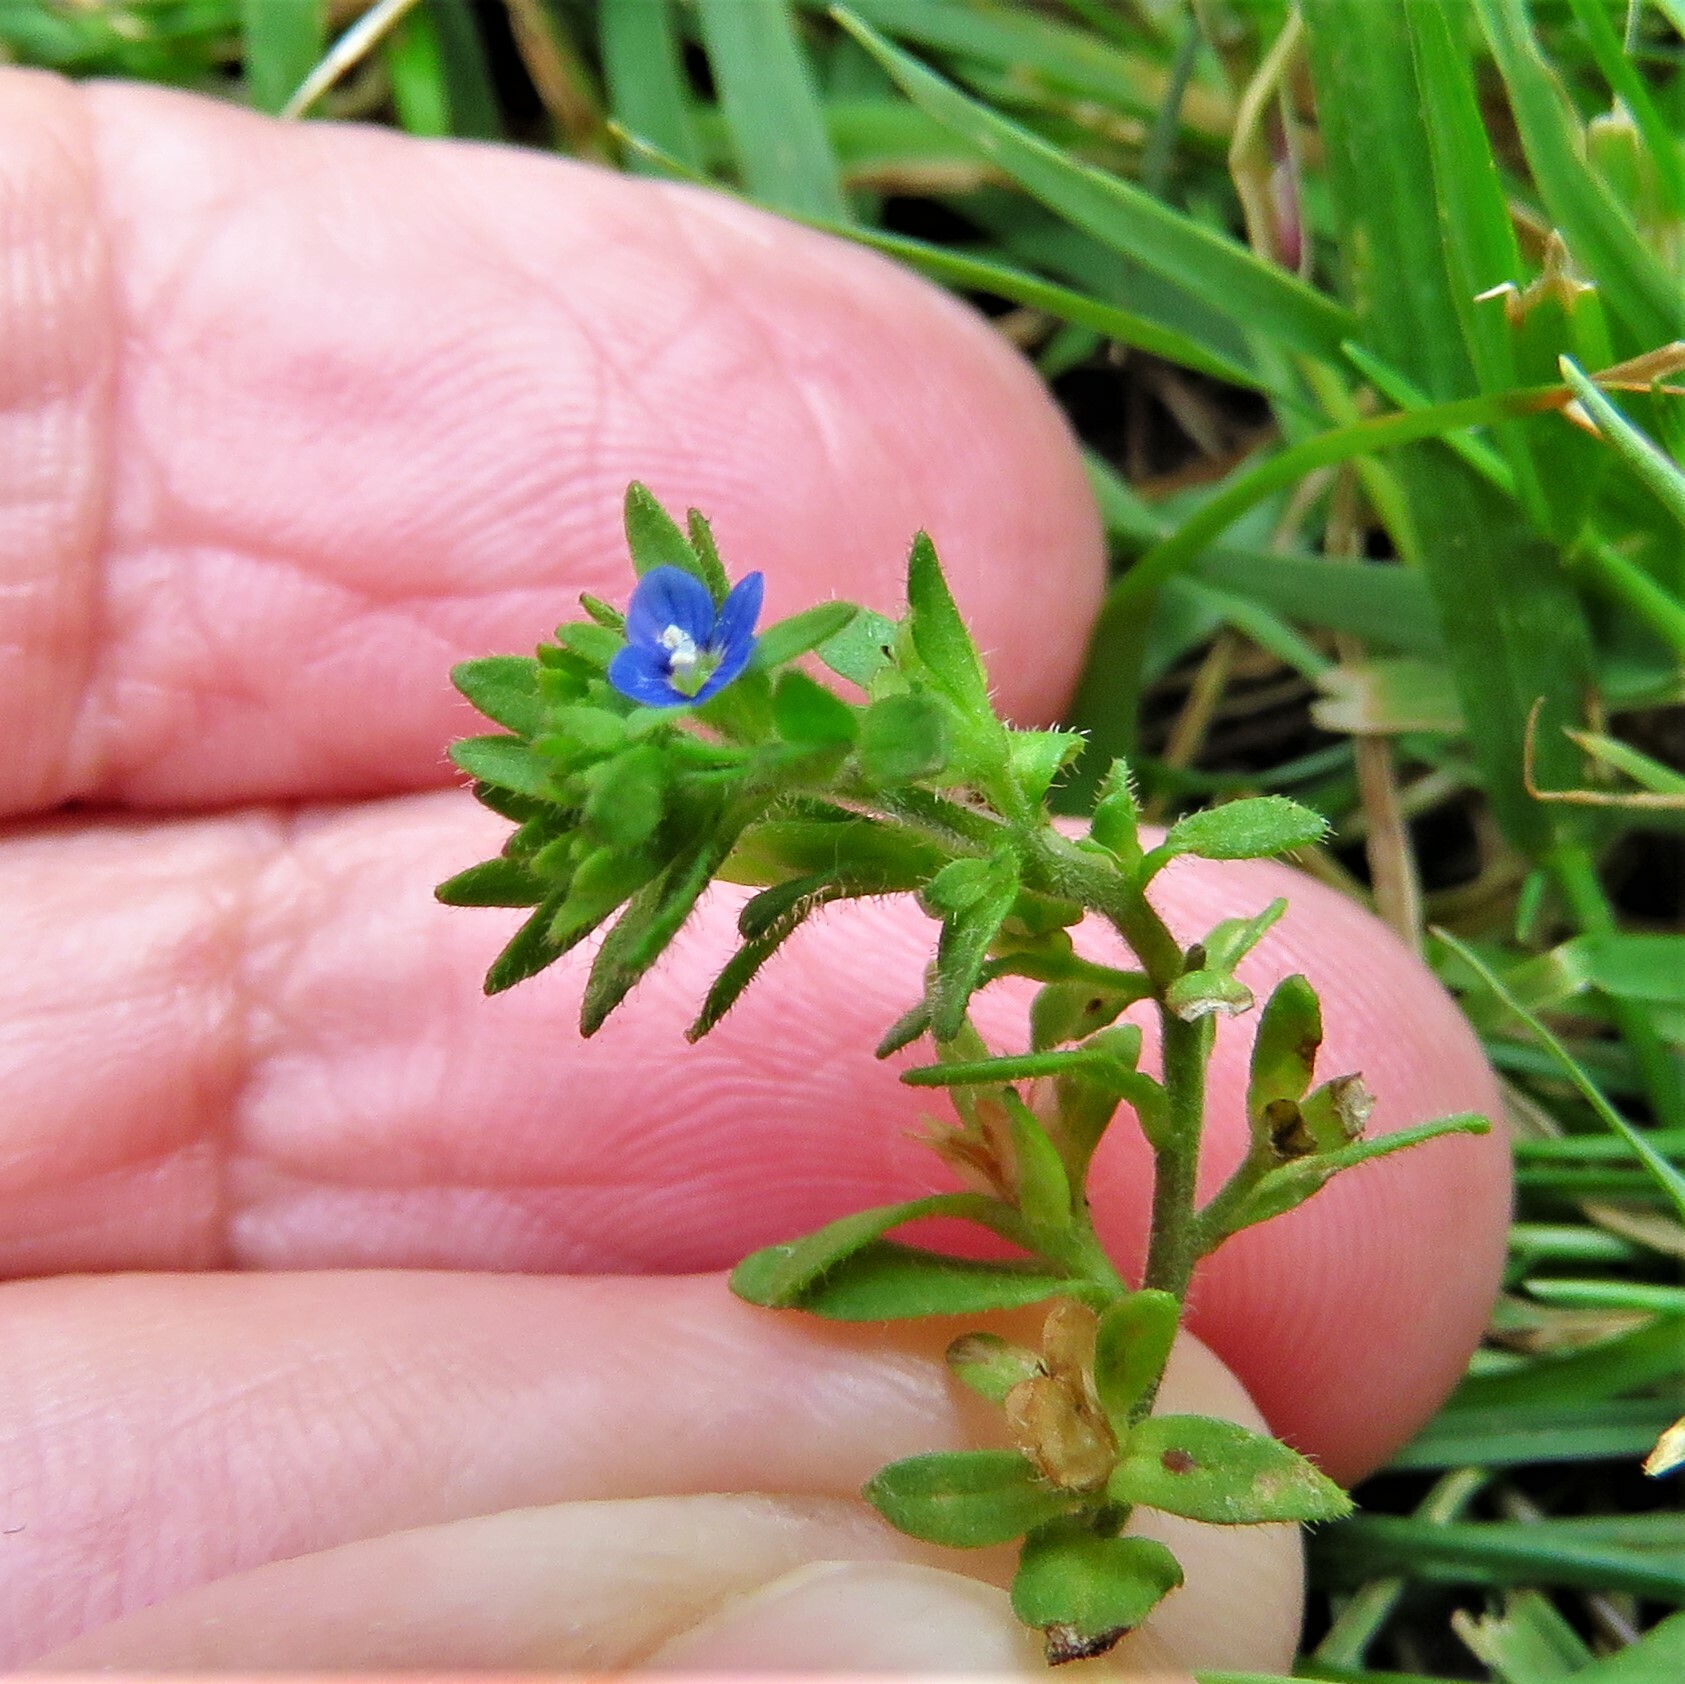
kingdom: Plantae
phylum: Tracheophyta
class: Magnoliopsida
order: Lamiales
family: Plantaginaceae
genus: Veronica
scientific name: Veronica arvensis
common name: Corn speedwell
